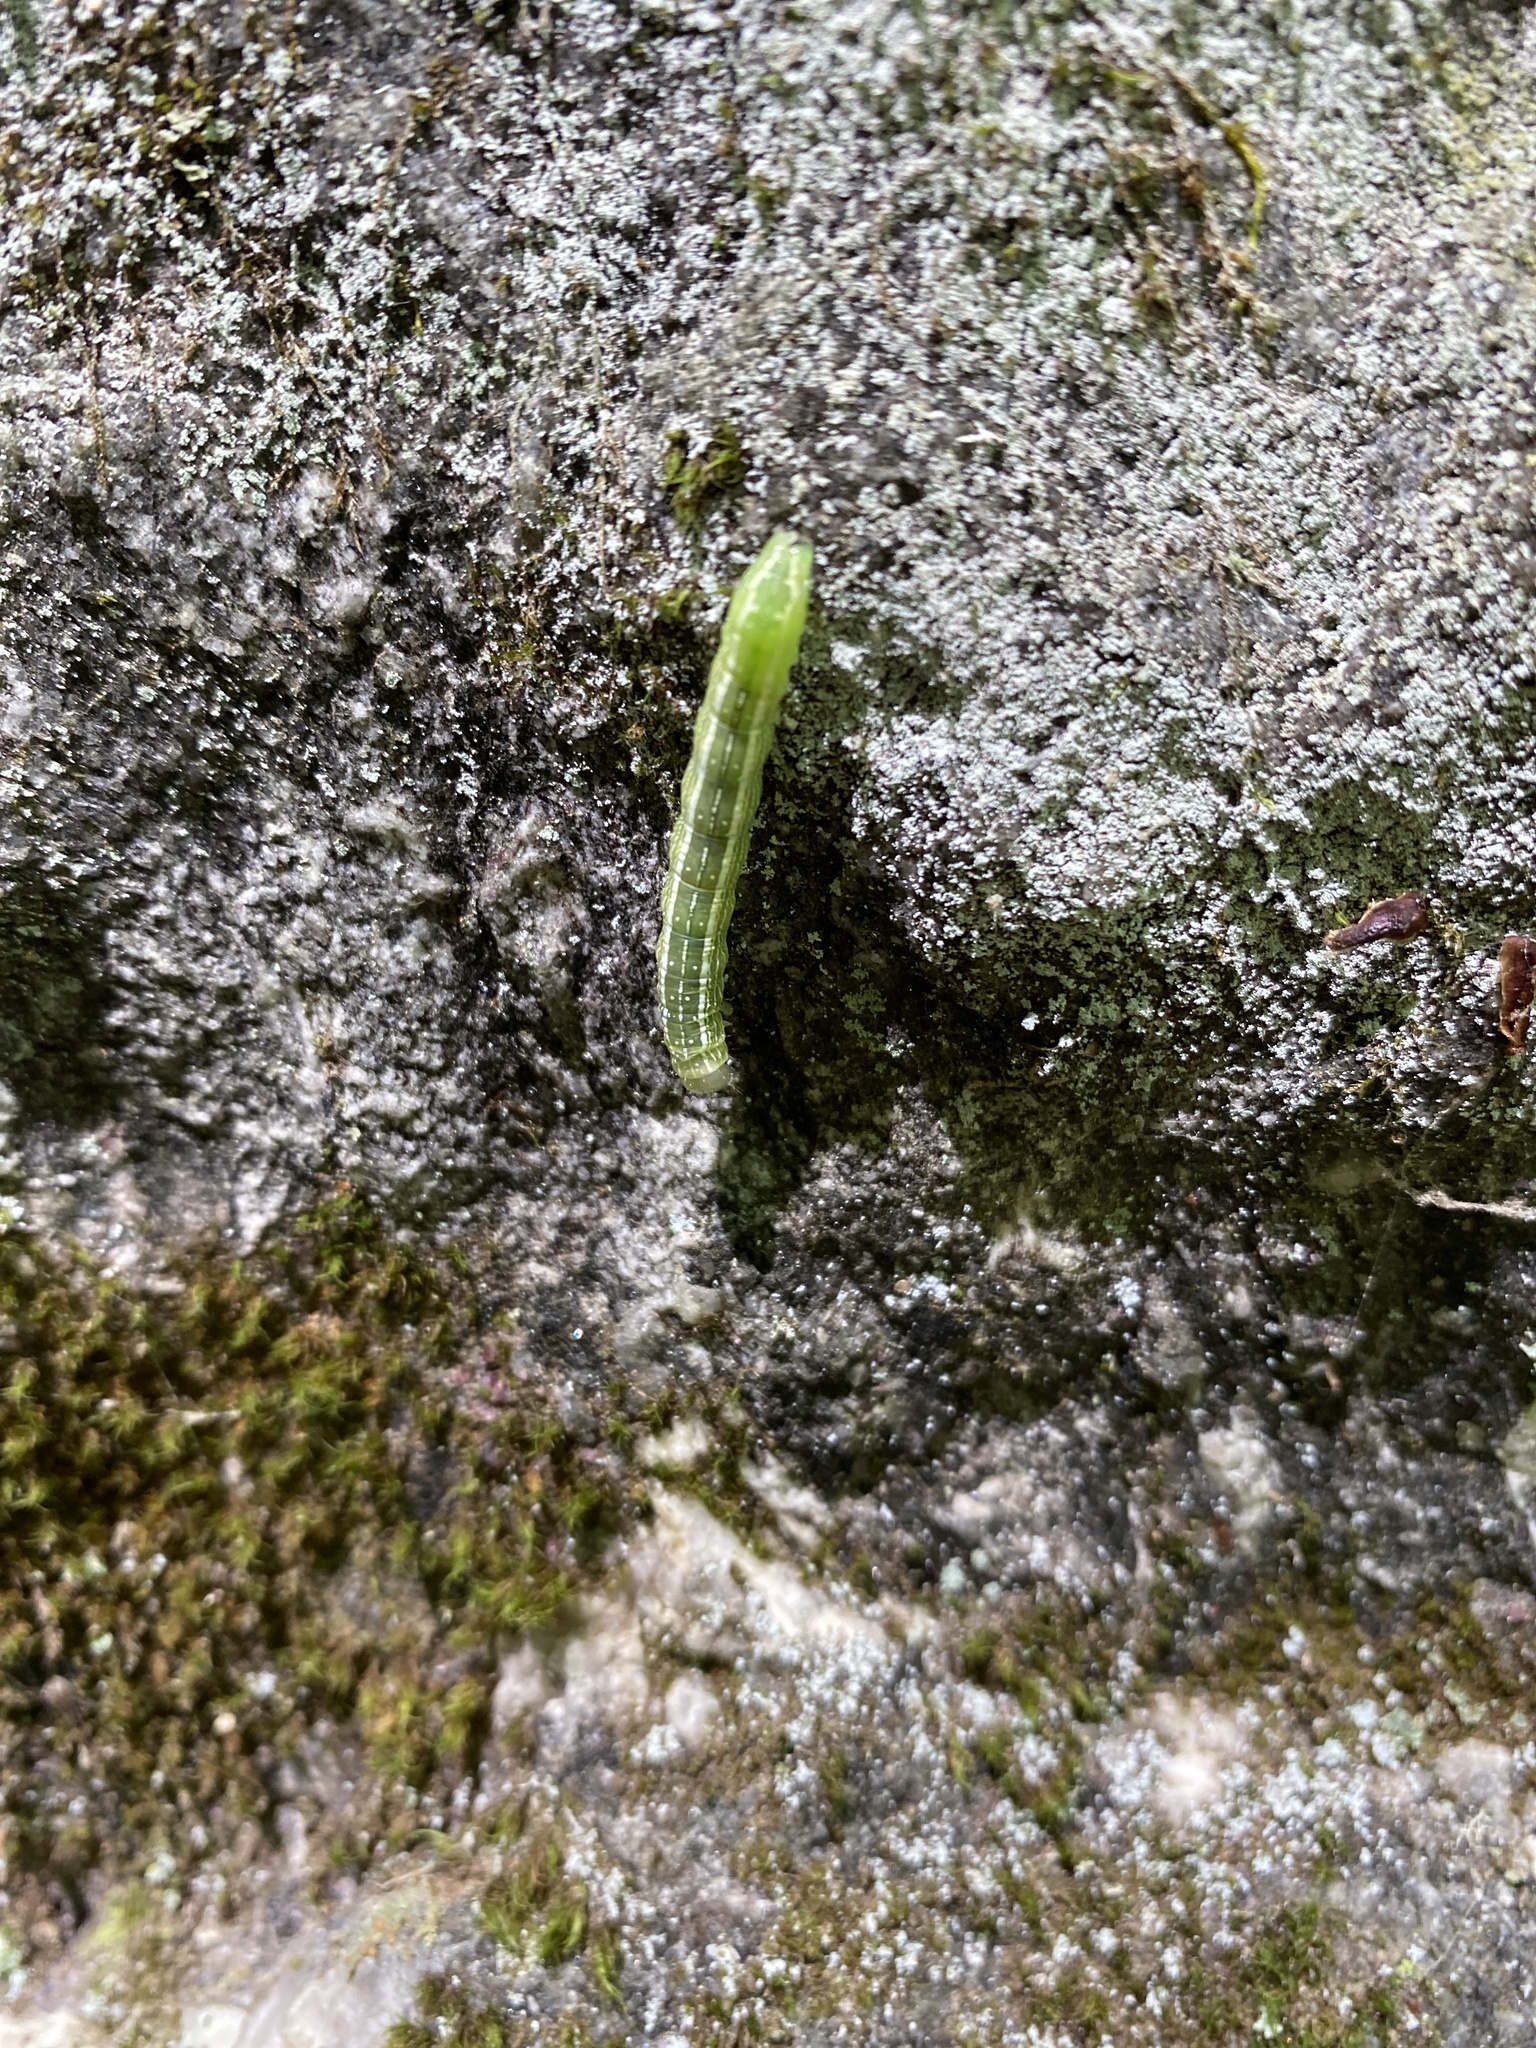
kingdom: Animalia
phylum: Arthropoda
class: Insecta
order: Lepidoptera
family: Noctuidae
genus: Kocakina
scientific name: Kocakina fidelis
